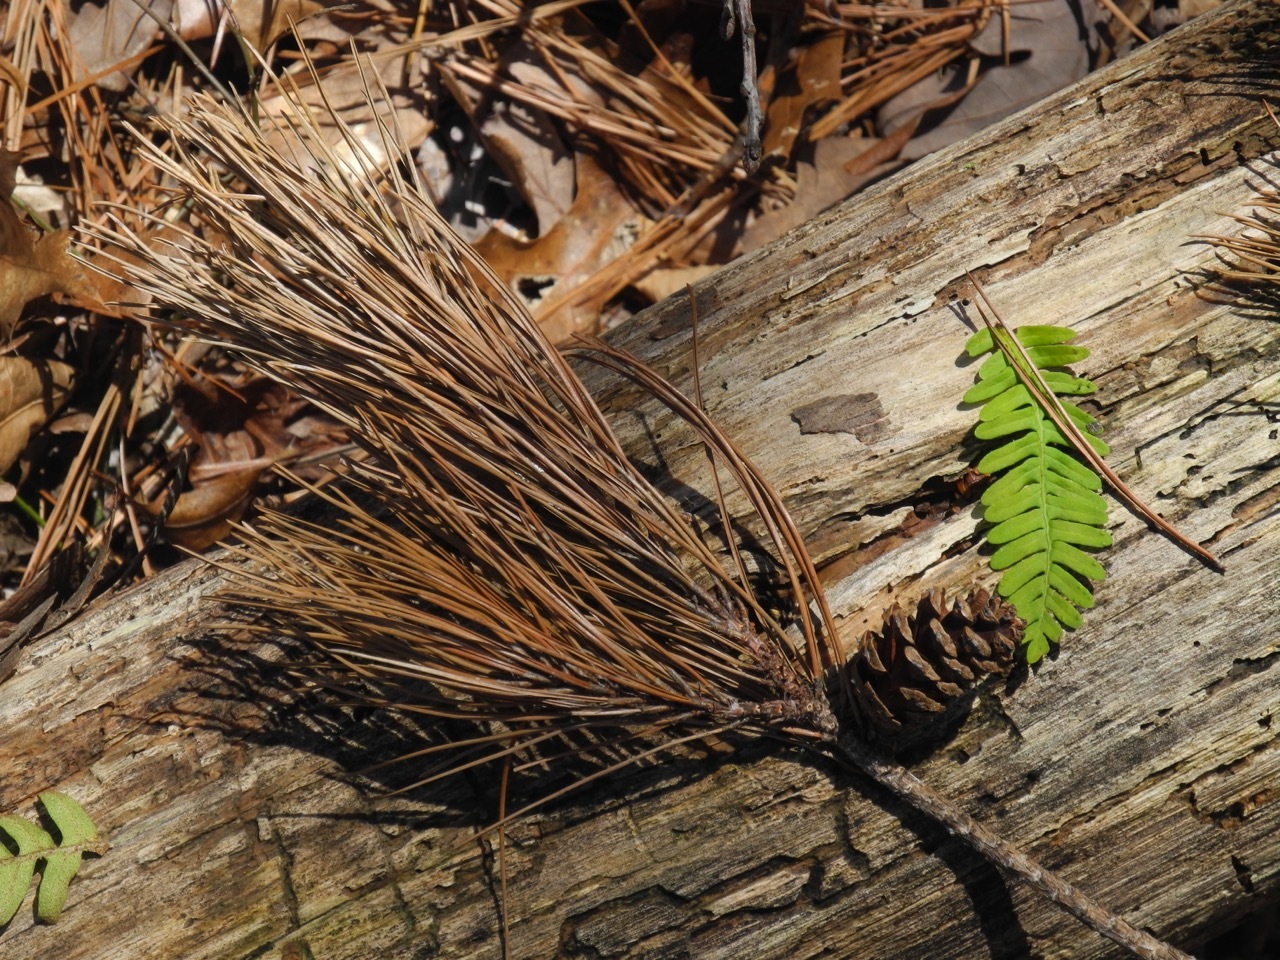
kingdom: Plantae
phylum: Tracheophyta
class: Pinopsida
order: Pinales
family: Pinaceae
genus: Pinus
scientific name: Pinus echinata
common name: Shortleaf pine
